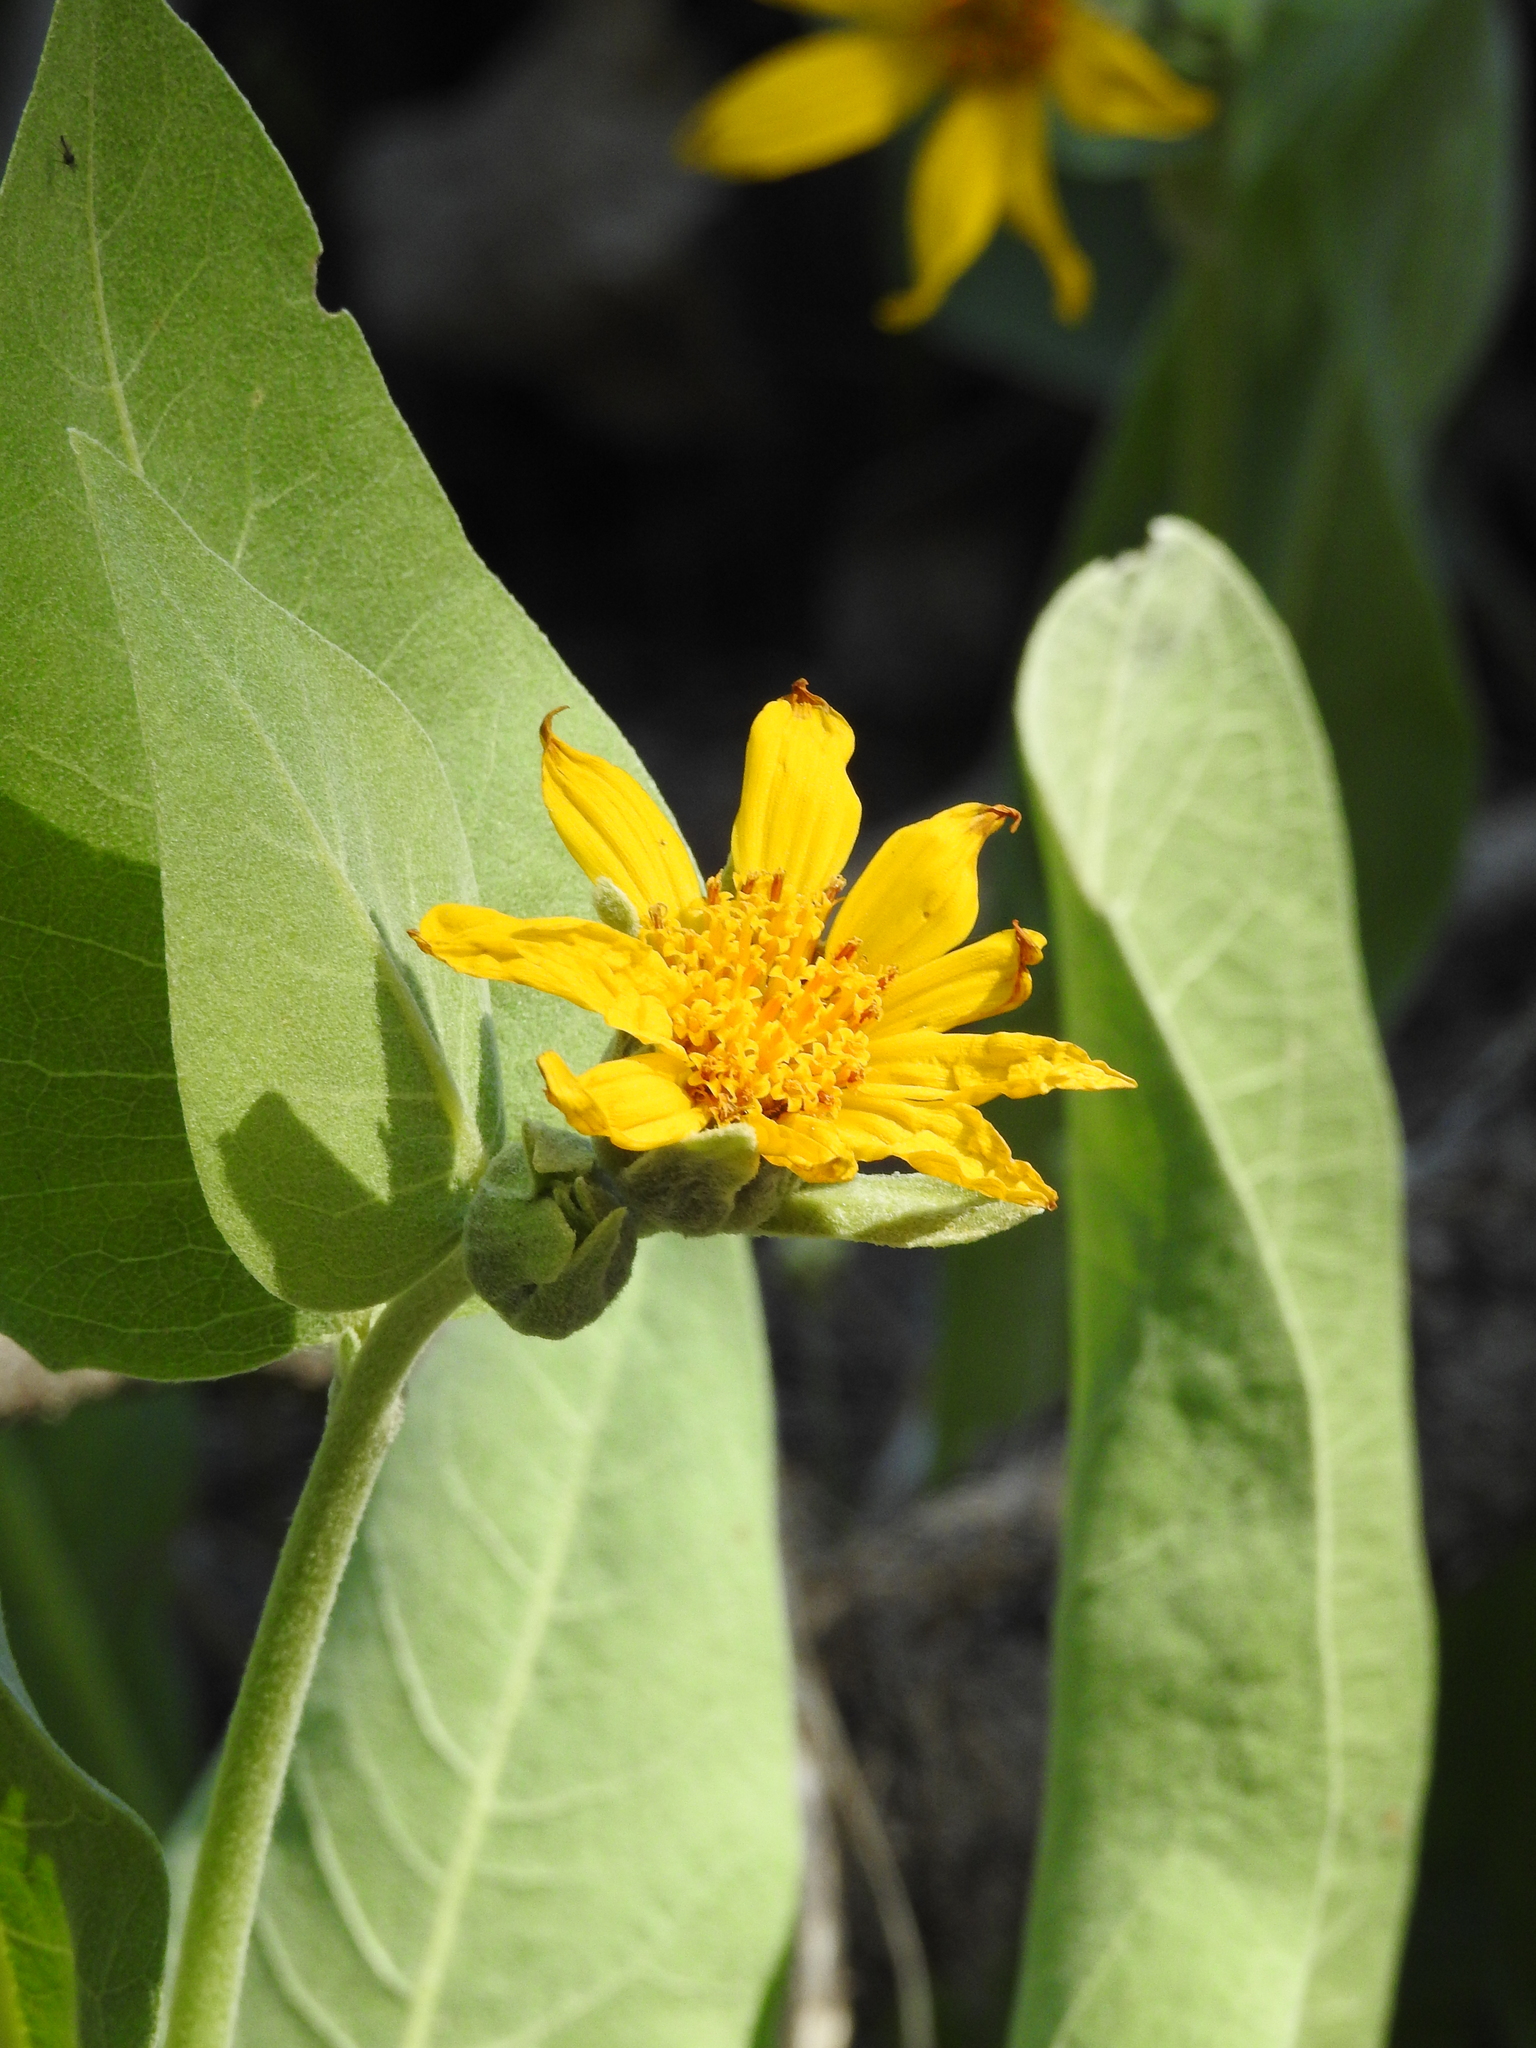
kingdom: Plantae
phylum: Tracheophyta
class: Magnoliopsida
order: Asterales
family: Asteraceae
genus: Wyethia
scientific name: Wyethia mollis
